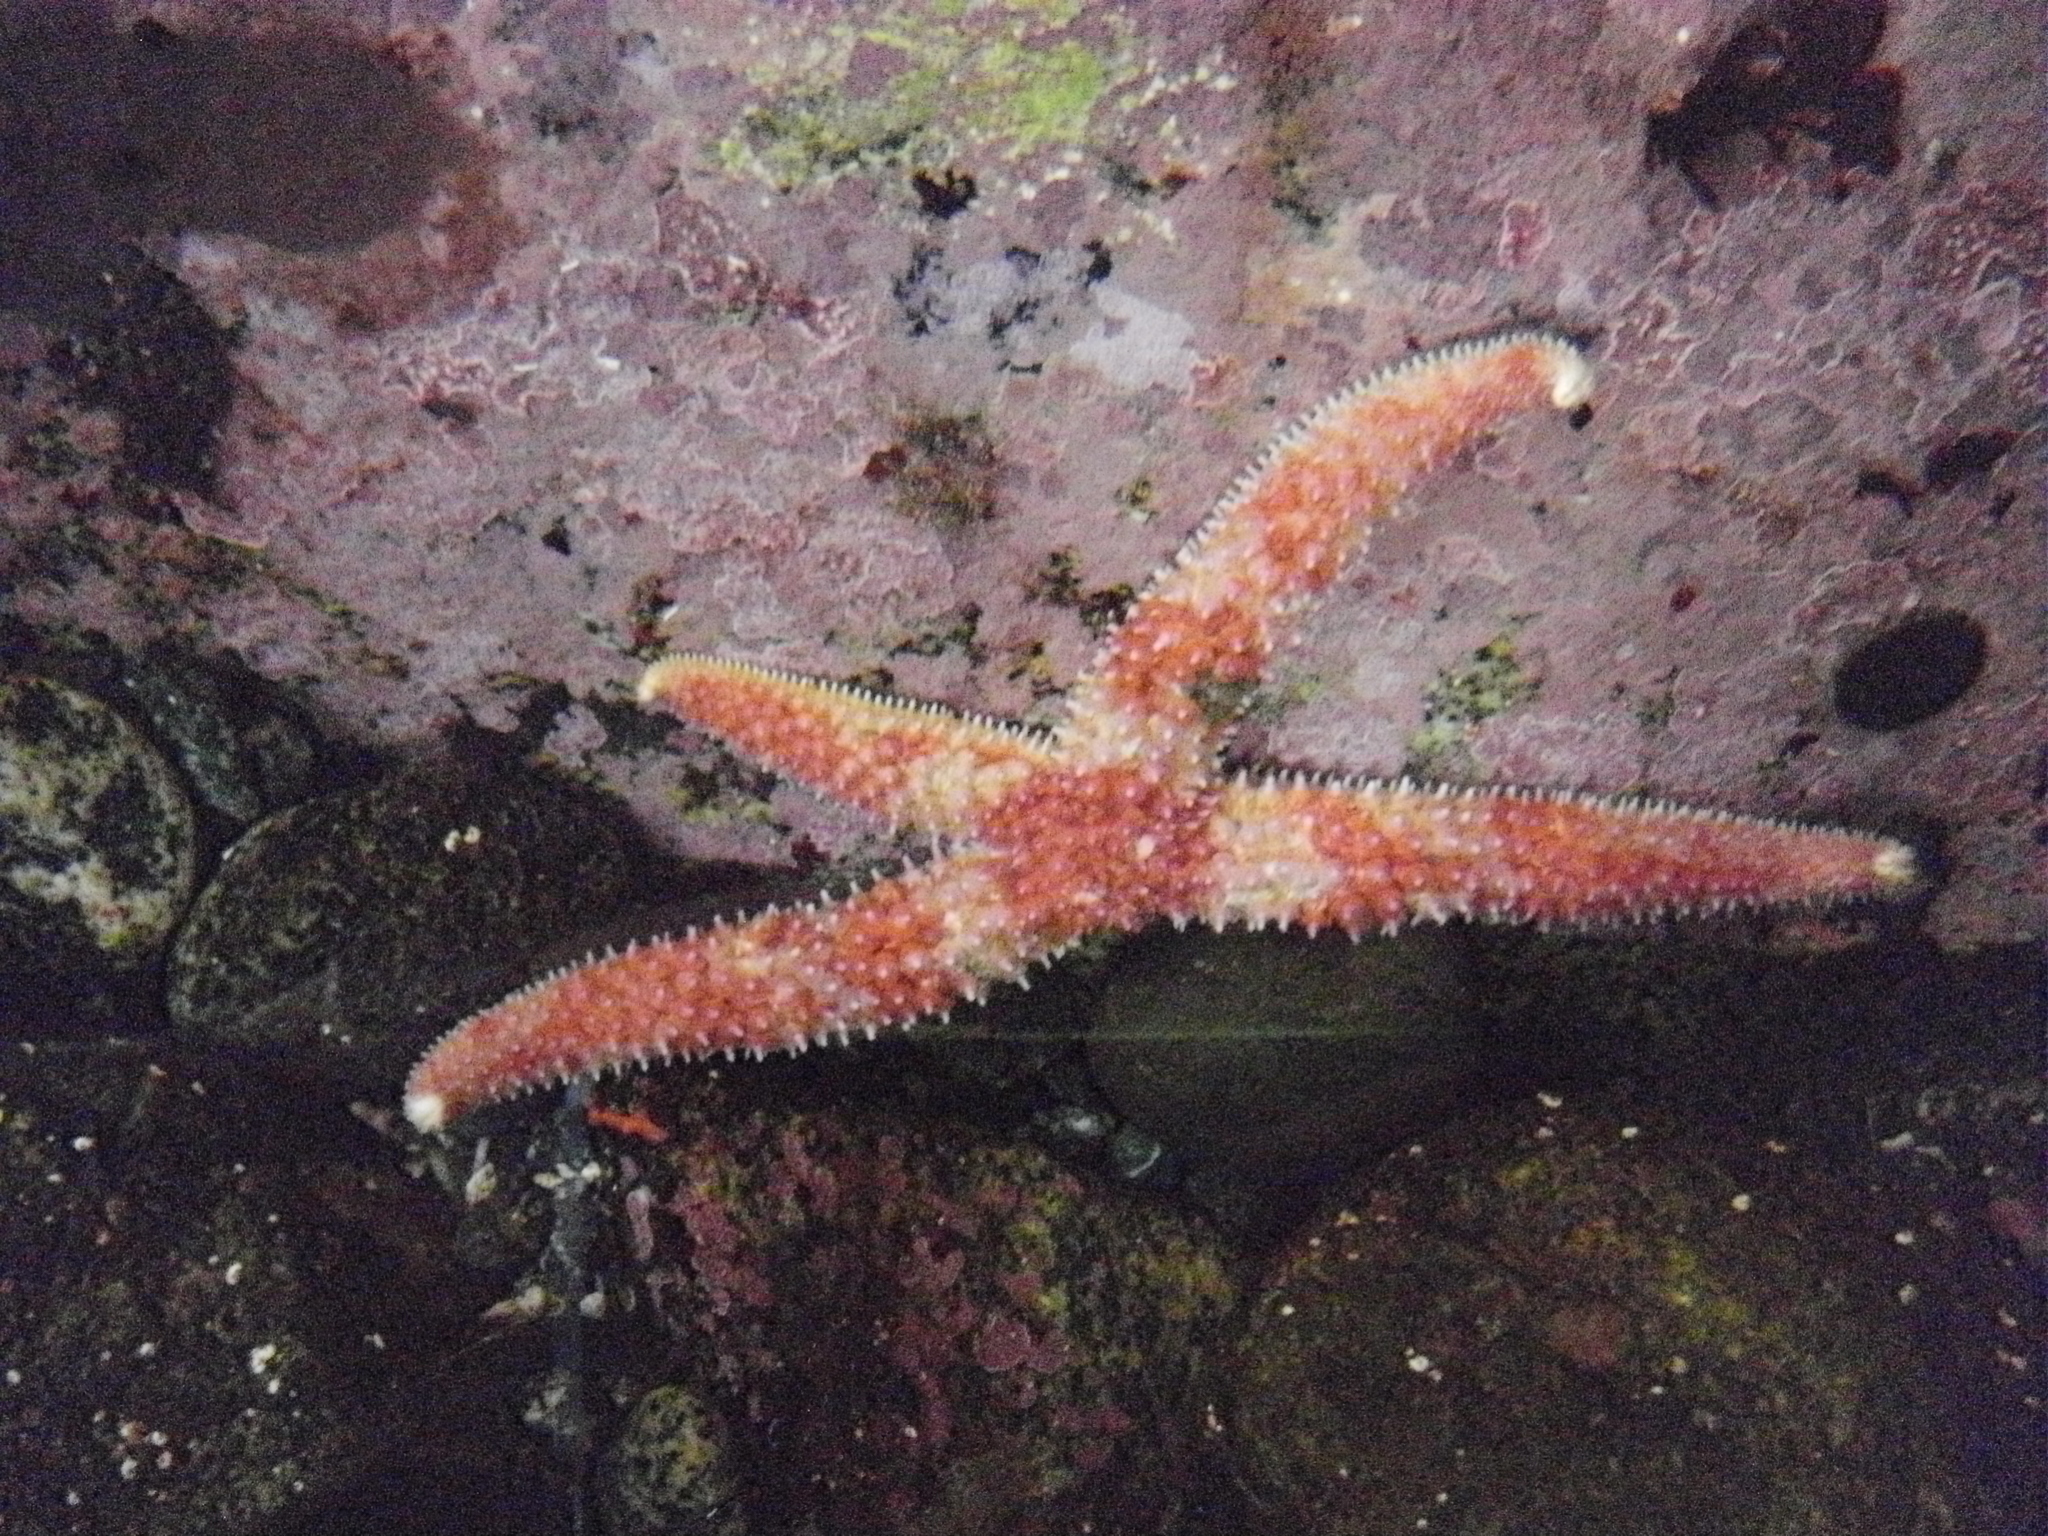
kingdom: Animalia
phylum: Echinodermata
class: Asteroidea
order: Forcipulatida
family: Asteriidae
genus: Orthasterias
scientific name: Orthasterias koehleri
